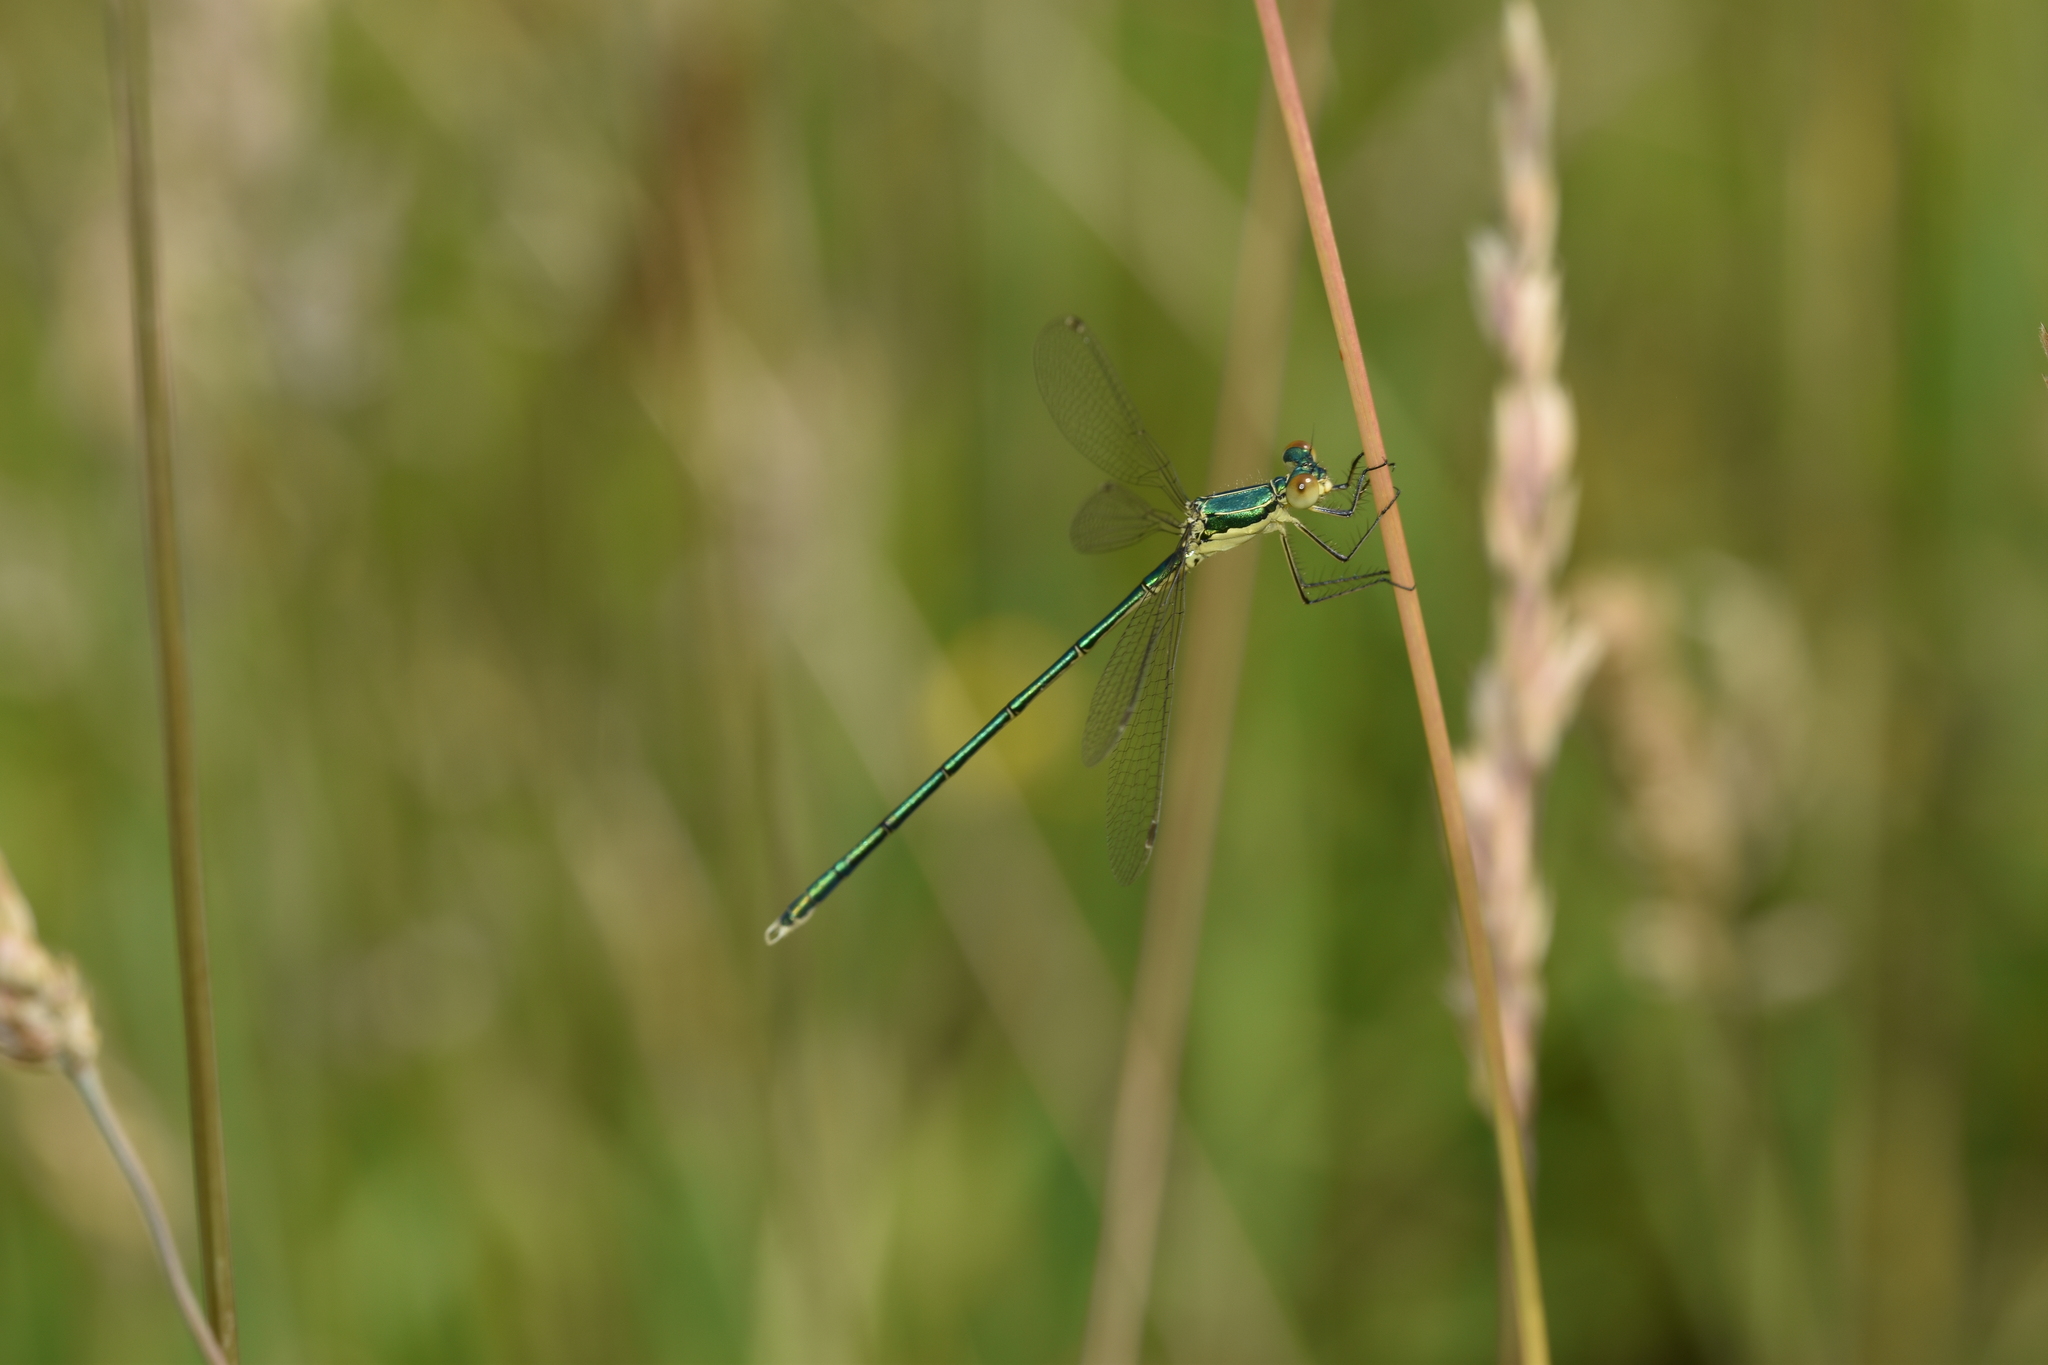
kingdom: Animalia
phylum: Arthropoda
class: Insecta
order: Odonata
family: Lestidae
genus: Lestes
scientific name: Lestes virens
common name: Small emerald spreadwing
